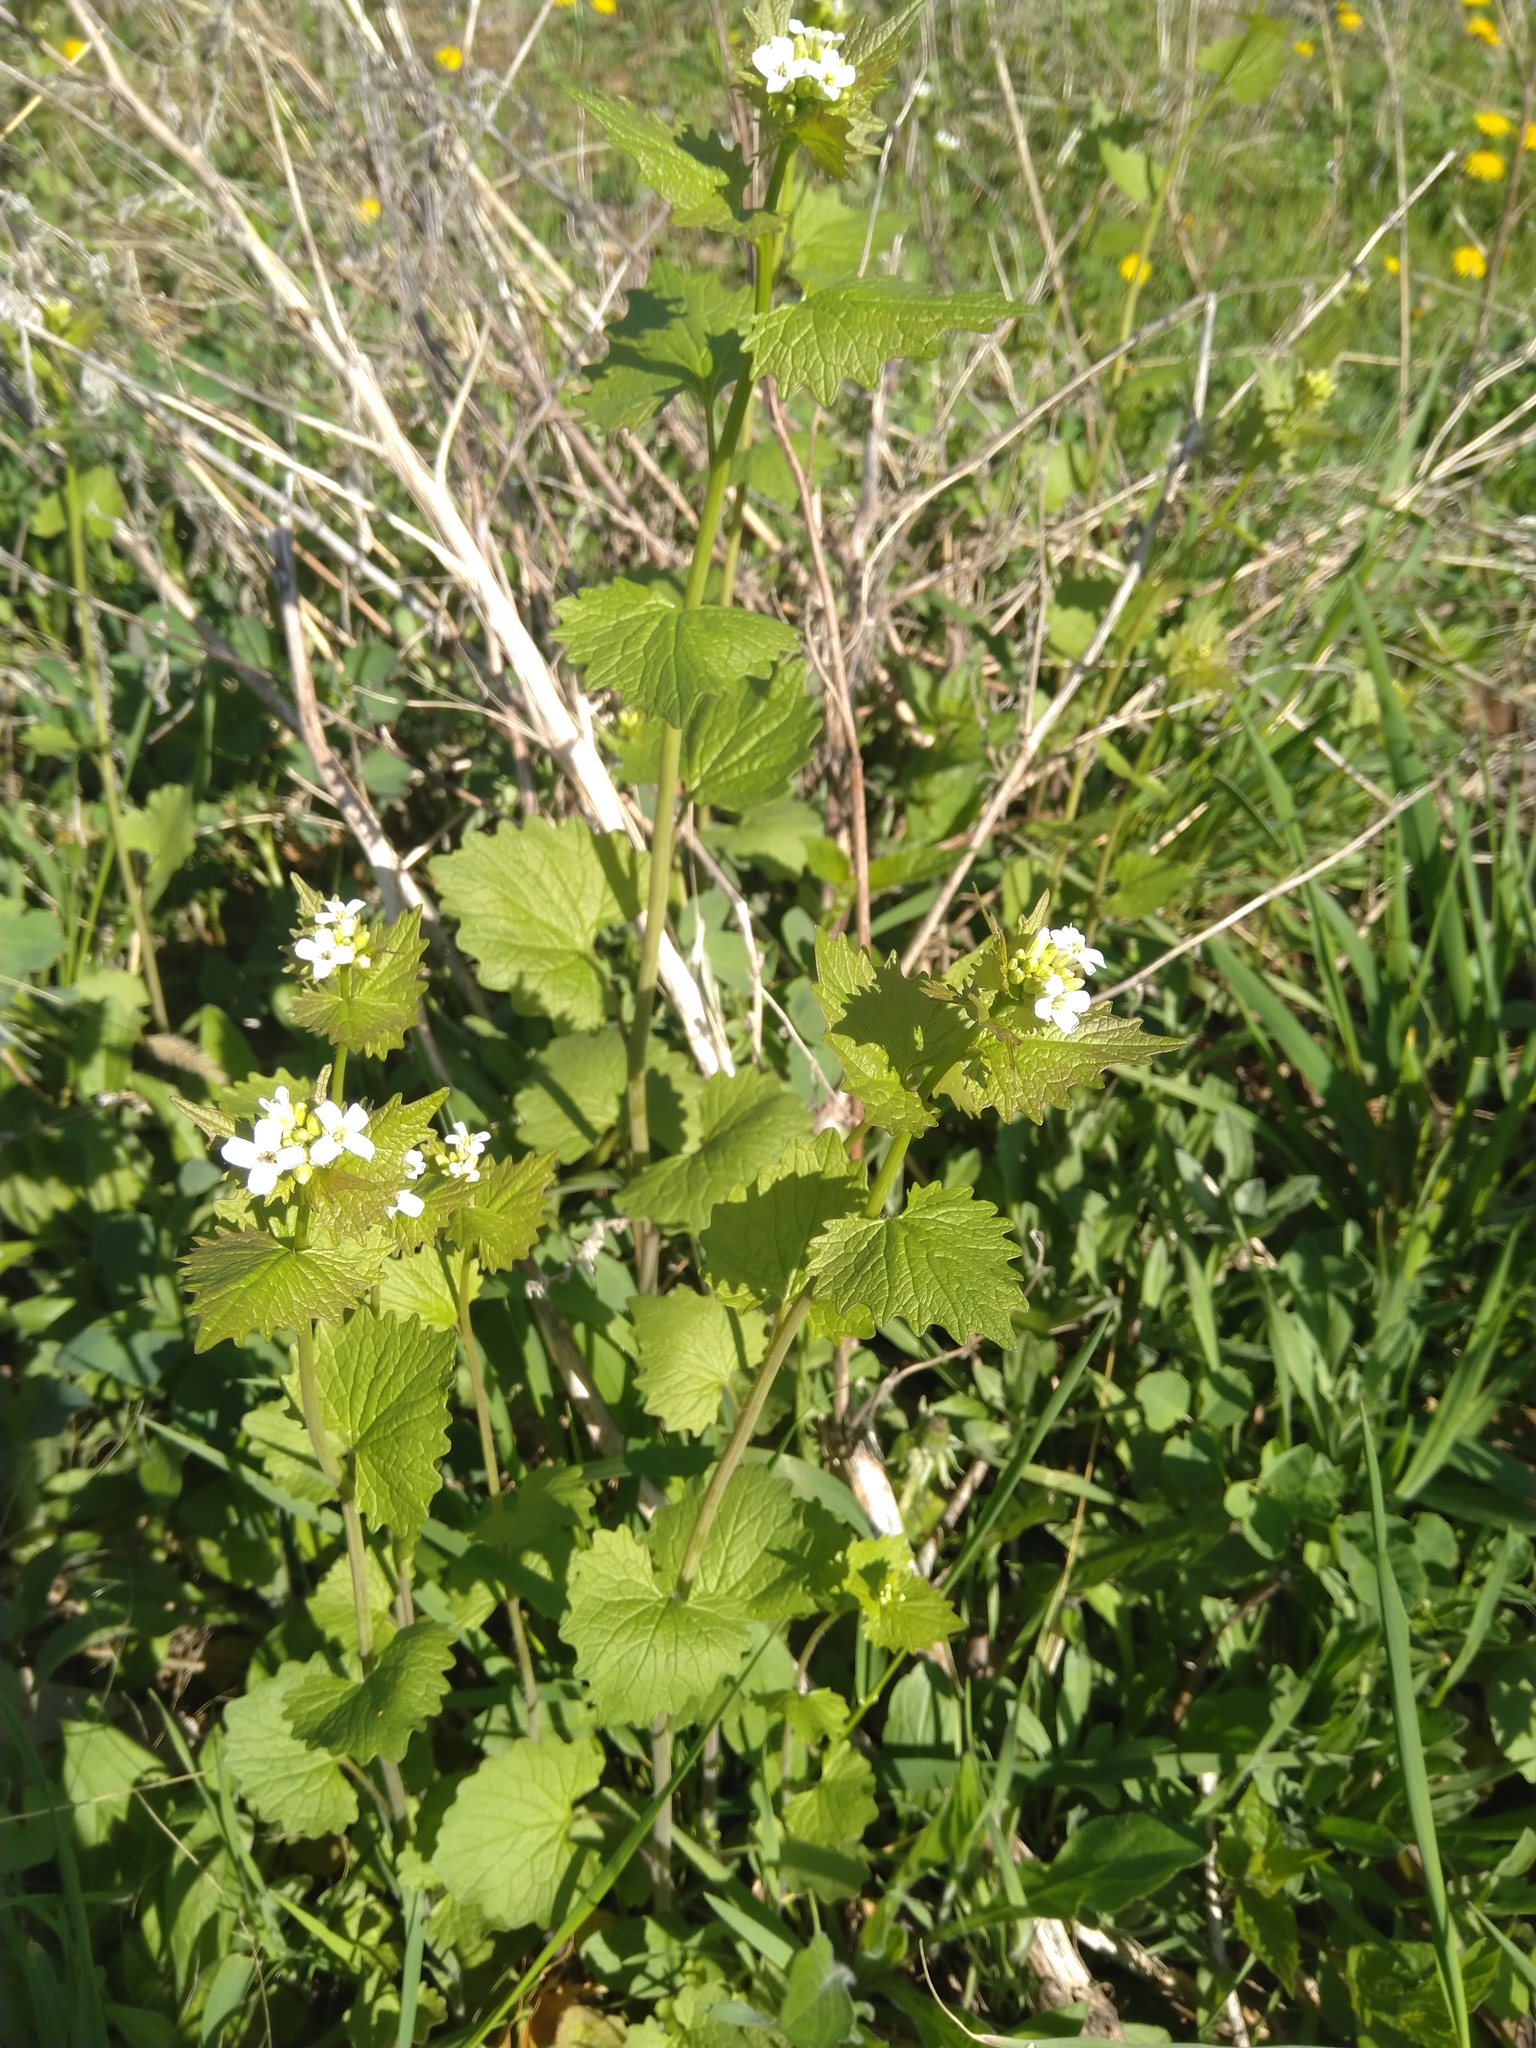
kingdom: Plantae
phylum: Tracheophyta
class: Magnoliopsida
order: Brassicales
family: Brassicaceae
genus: Alliaria
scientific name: Alliaria petiolata
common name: Garlic mustard
